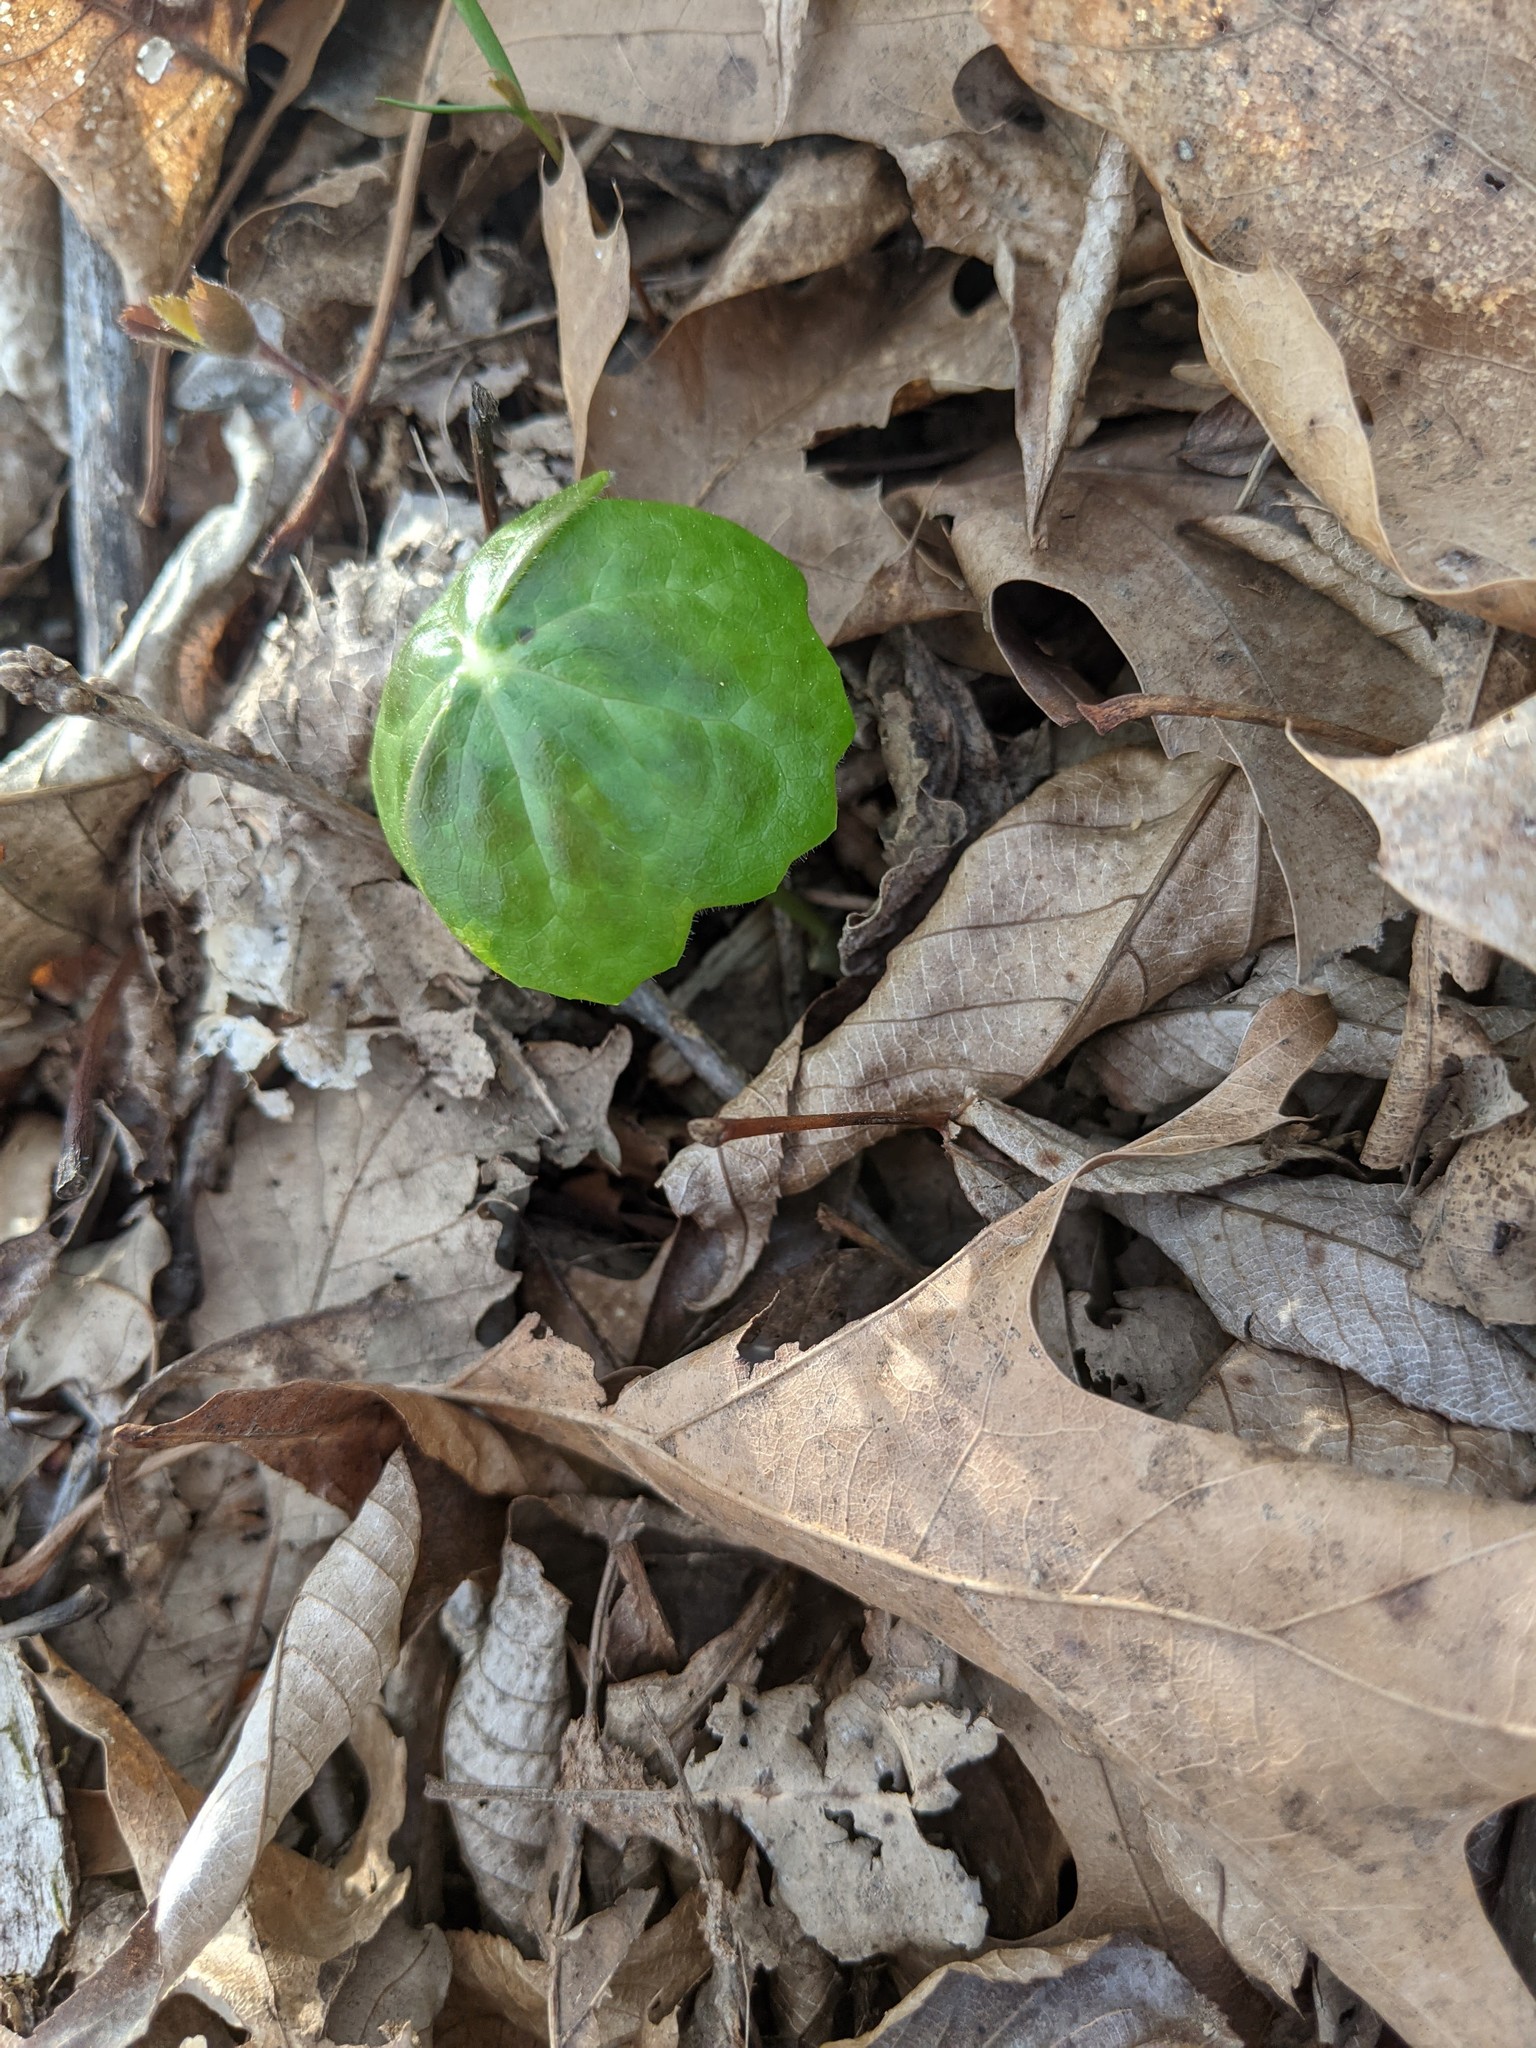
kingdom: Plantae
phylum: Tracheophyta
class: Magnoliopsida
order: Ranunculales
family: Berberidaceae
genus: Podophyllum
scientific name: Podophyllum peltatum
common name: Wild mandrake
